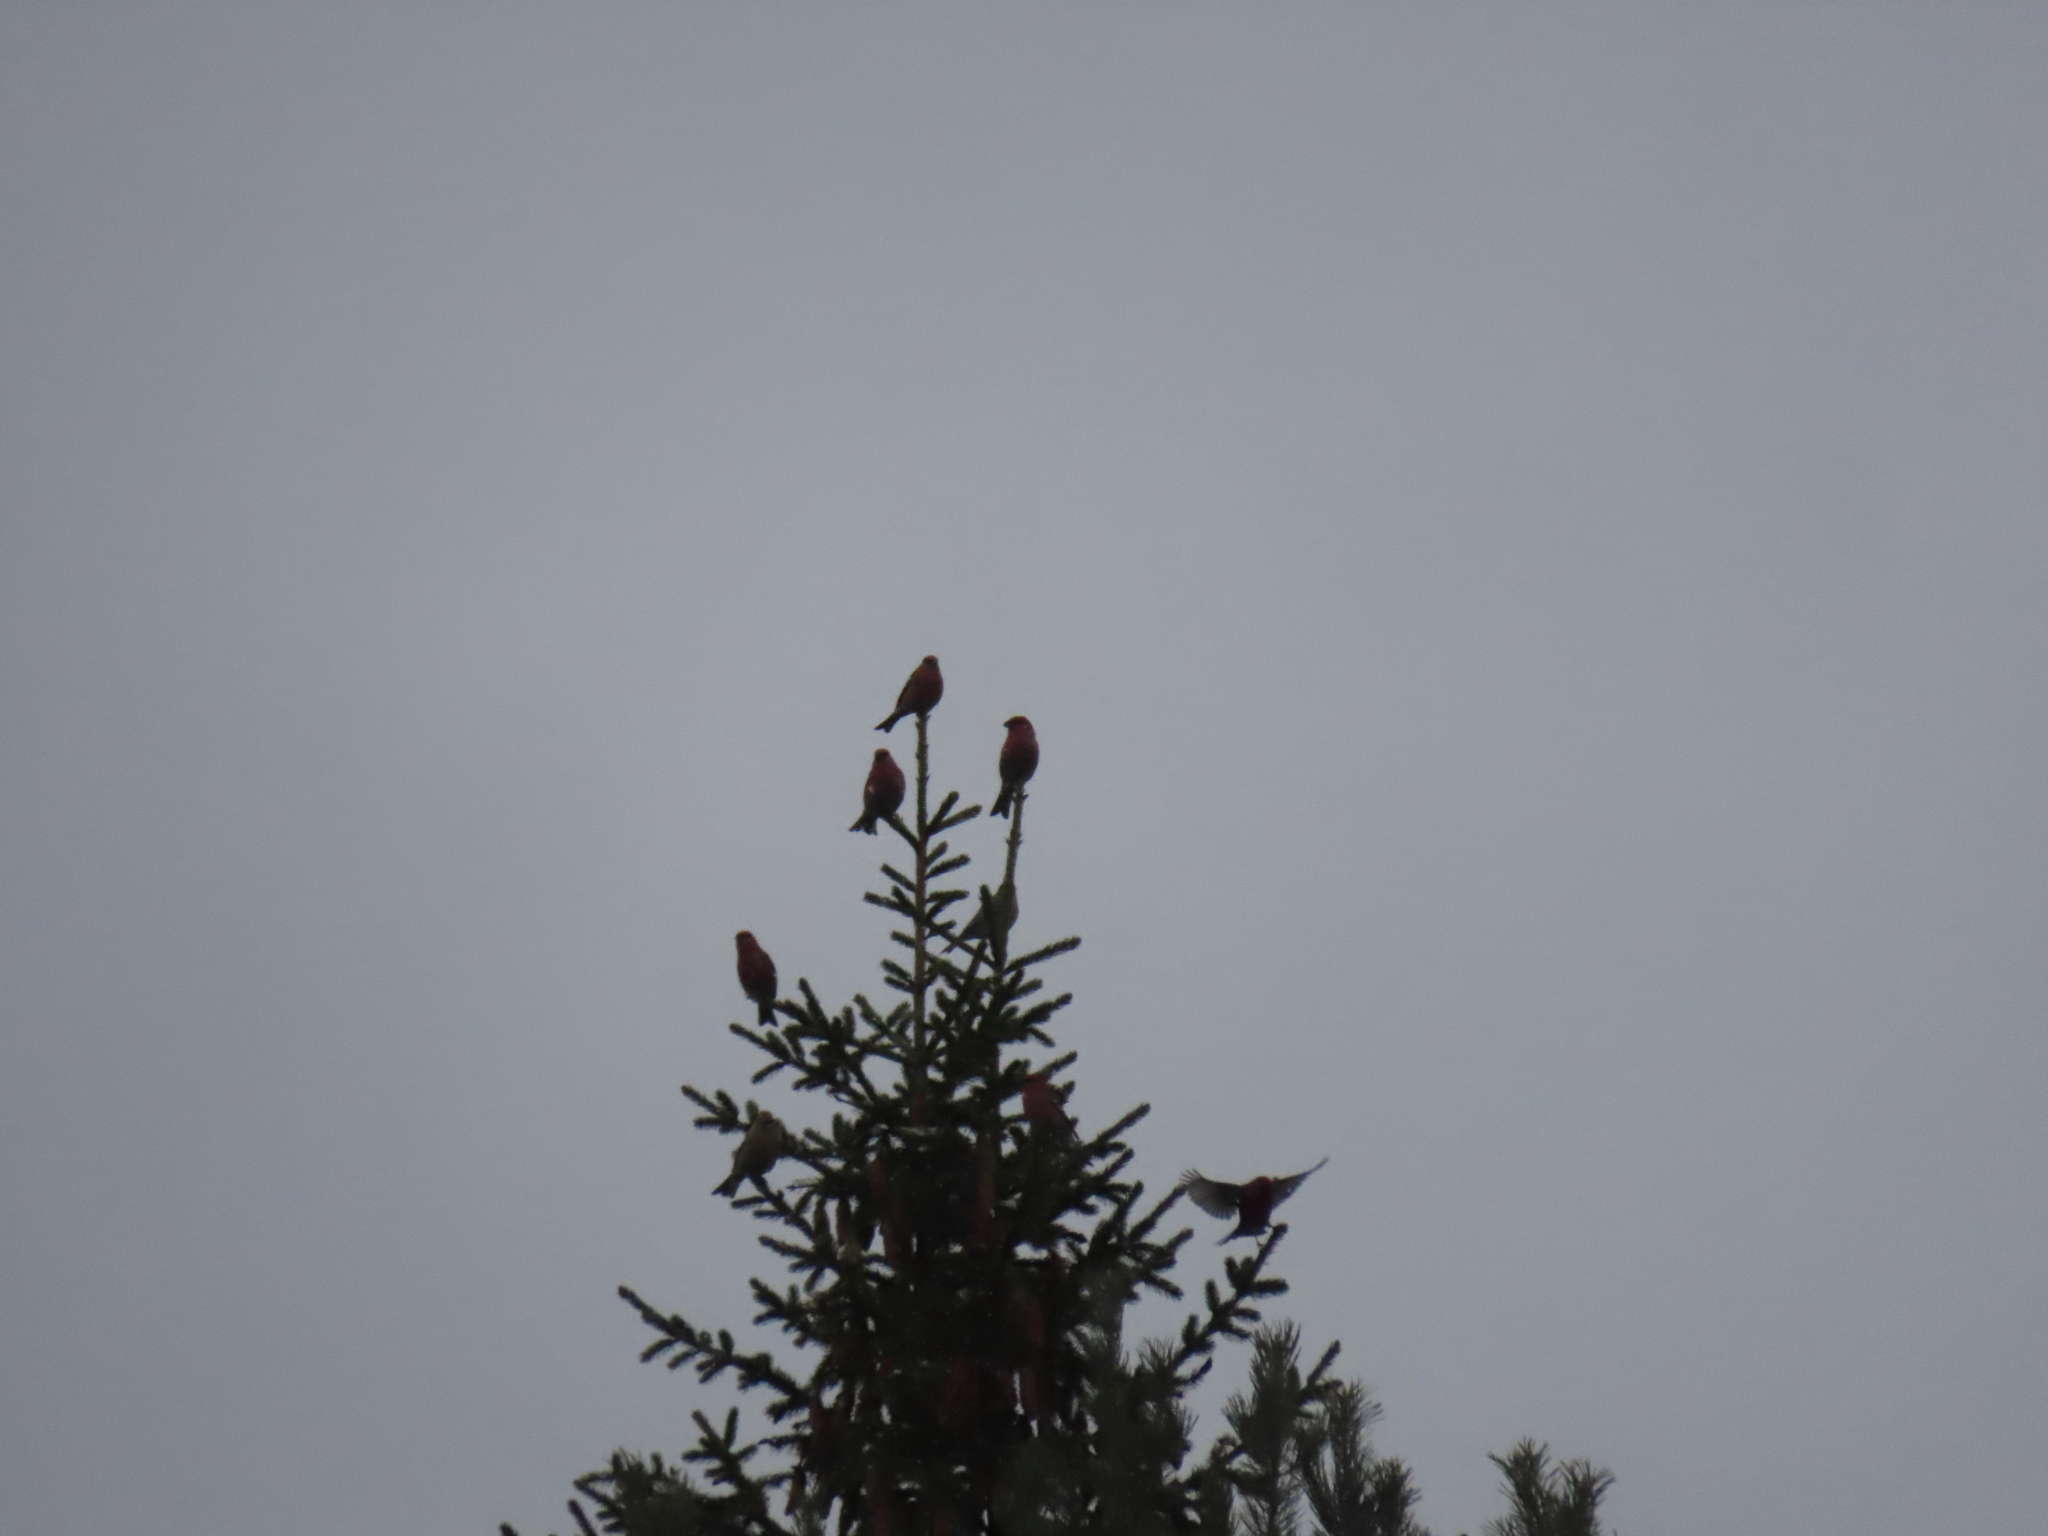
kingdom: Animalia
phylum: Chordata
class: Aves
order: Passeriformes
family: Fringillidae
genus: Pinicola
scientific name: Pinicola enucleator
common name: Pine grosbeak
